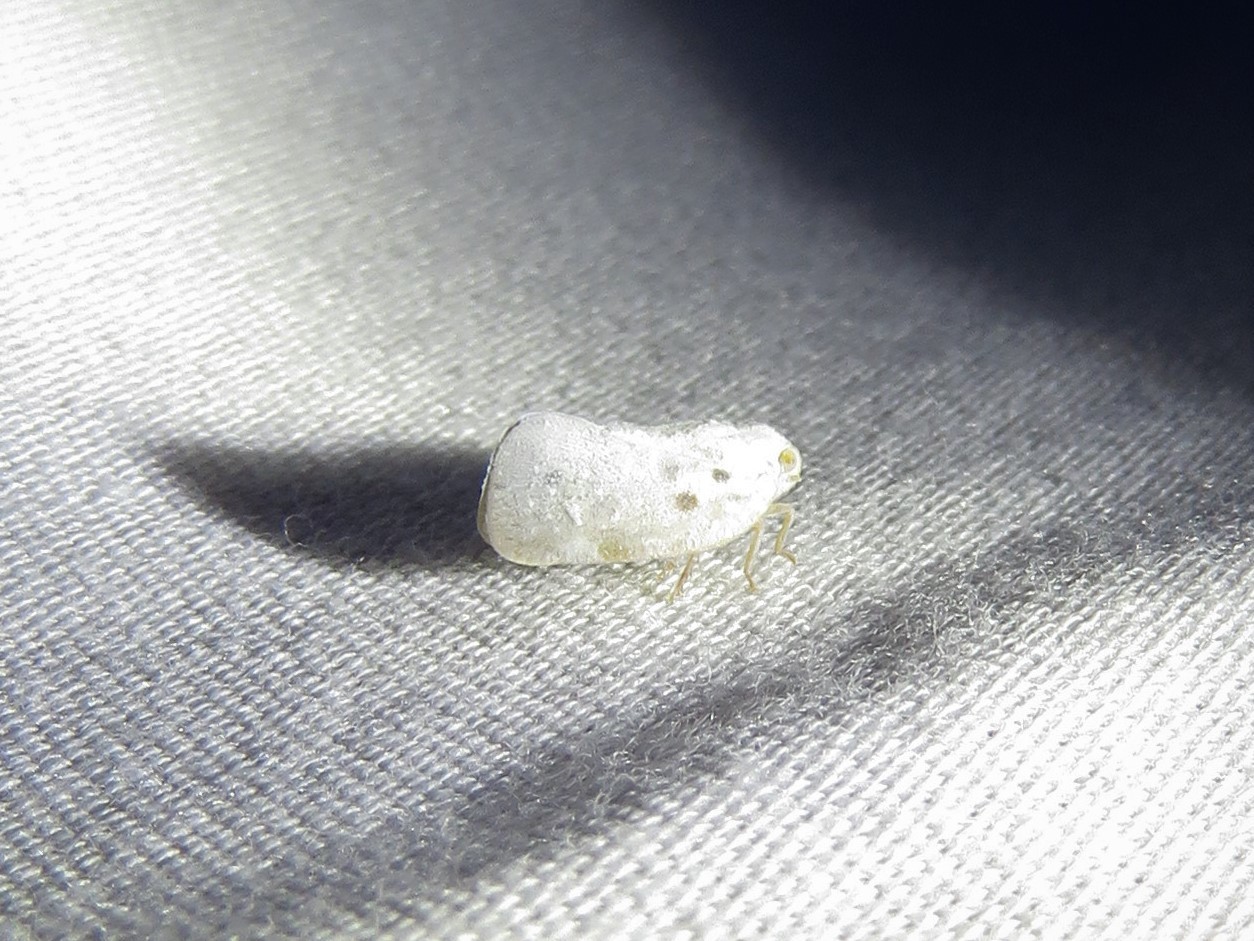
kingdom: Animalia
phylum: Arthropoda
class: Insecta
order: Hemiptera
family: Flatidae
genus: Metcalfa
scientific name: Metcalfa pruinosa
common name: Citrus flatid planthopper
